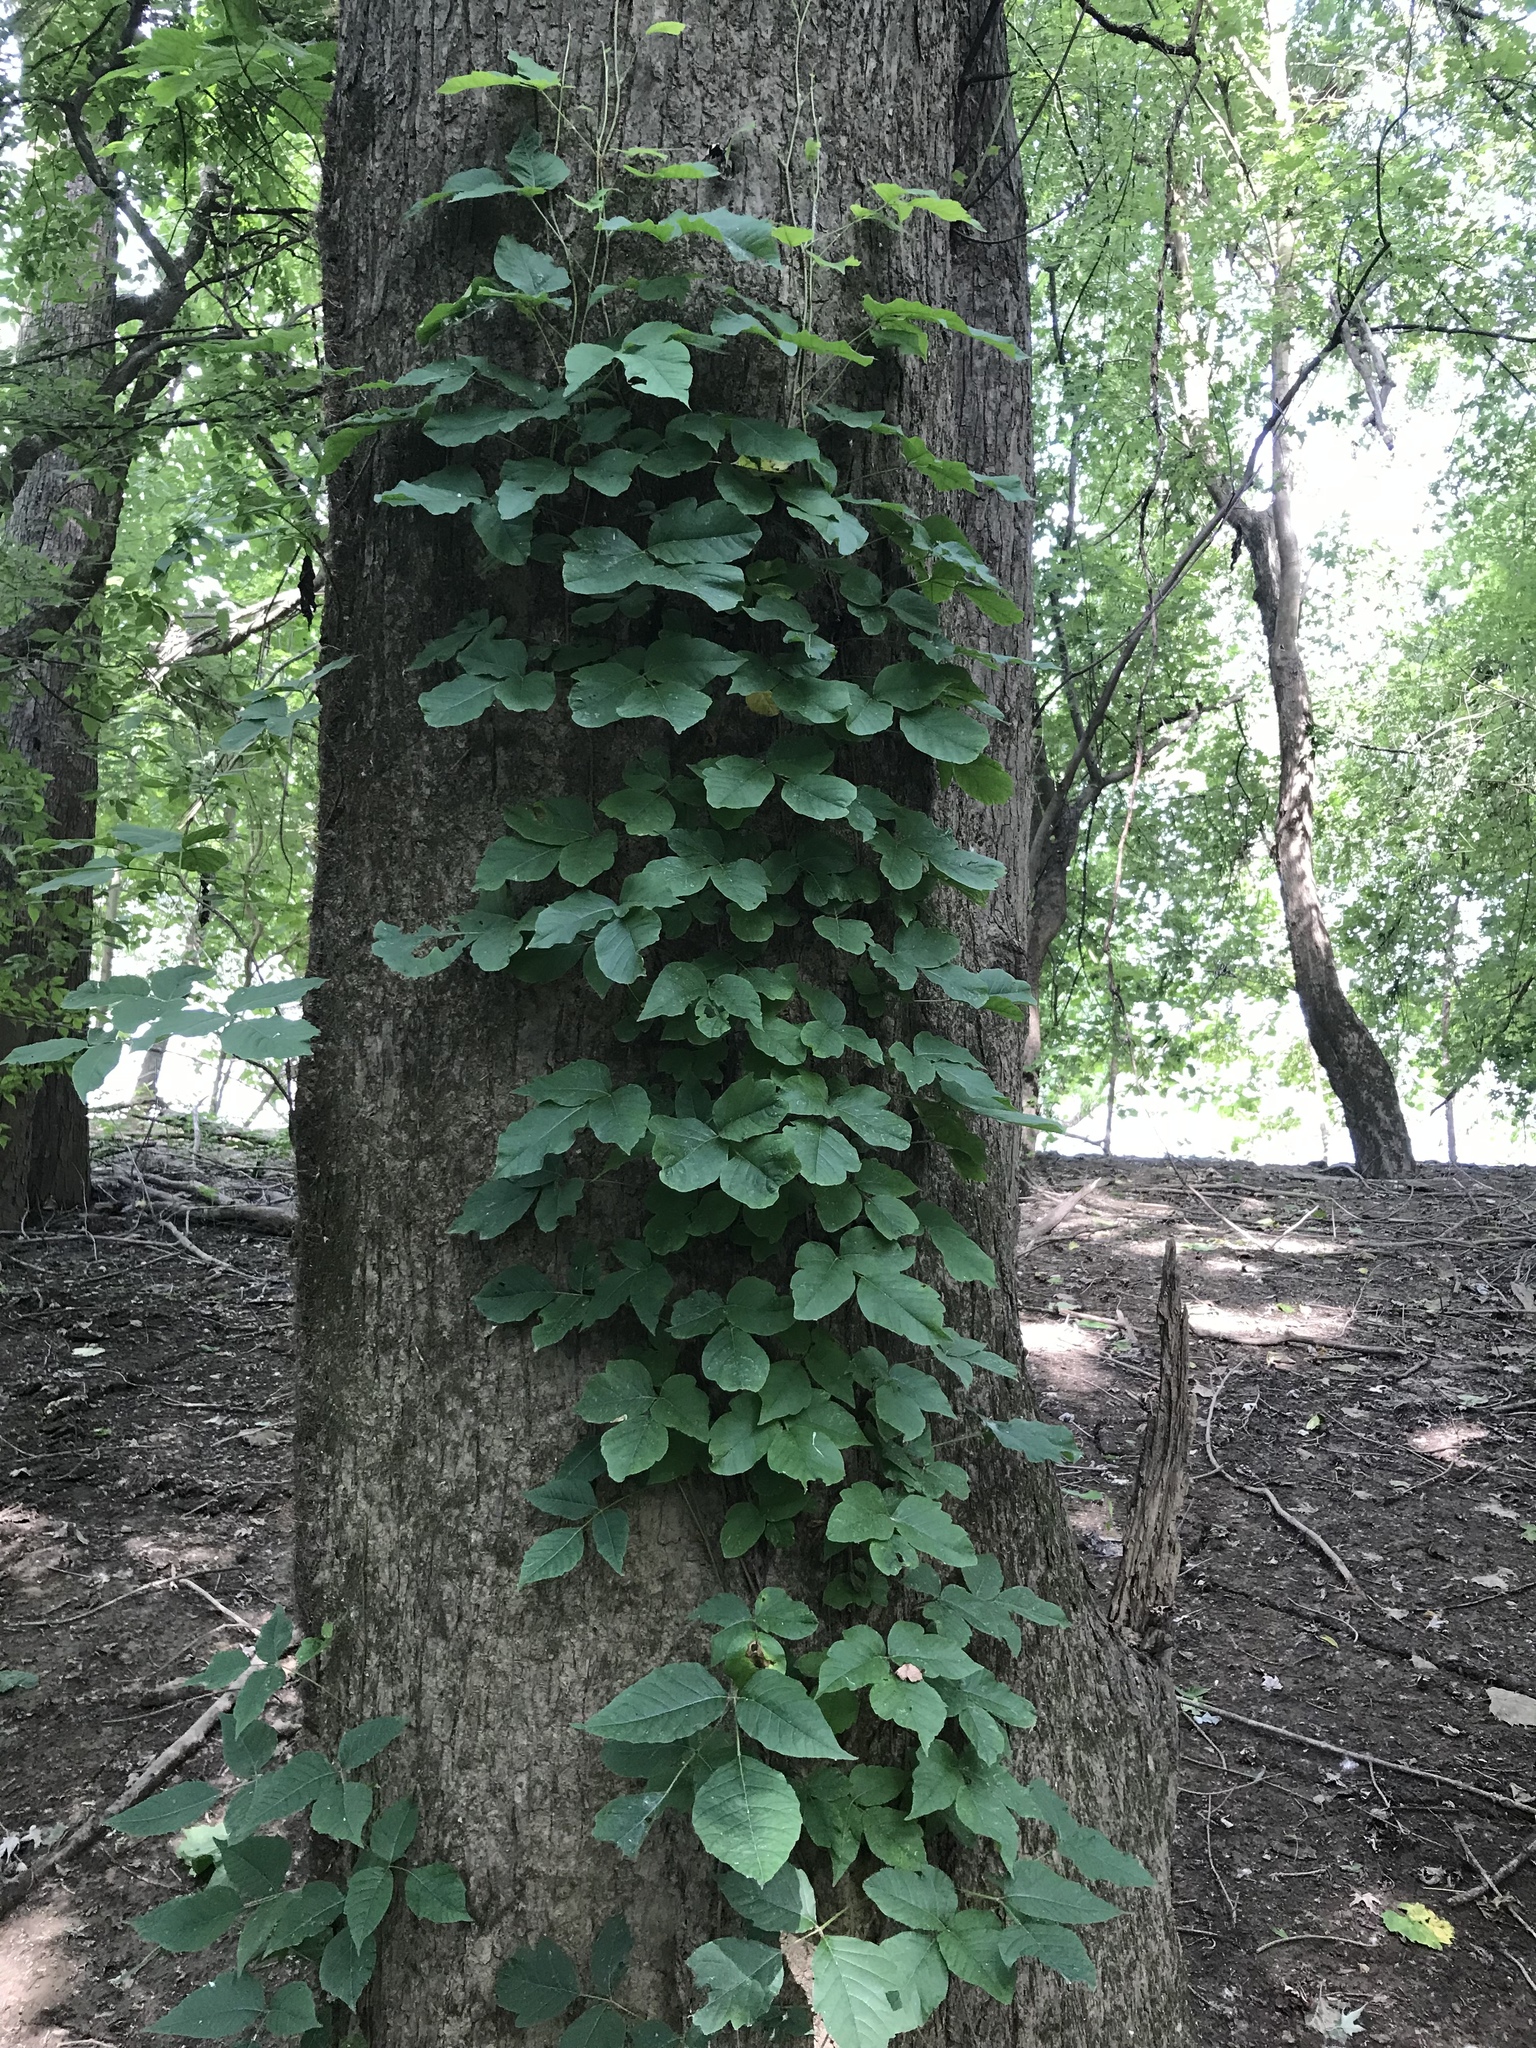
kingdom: Plantae
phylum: Tracheophyta
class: Magnoliopsida
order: Sapindales
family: Anacardiaceae
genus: Toxicodendron
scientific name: Toxicodendron radicans
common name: Poison ivy
